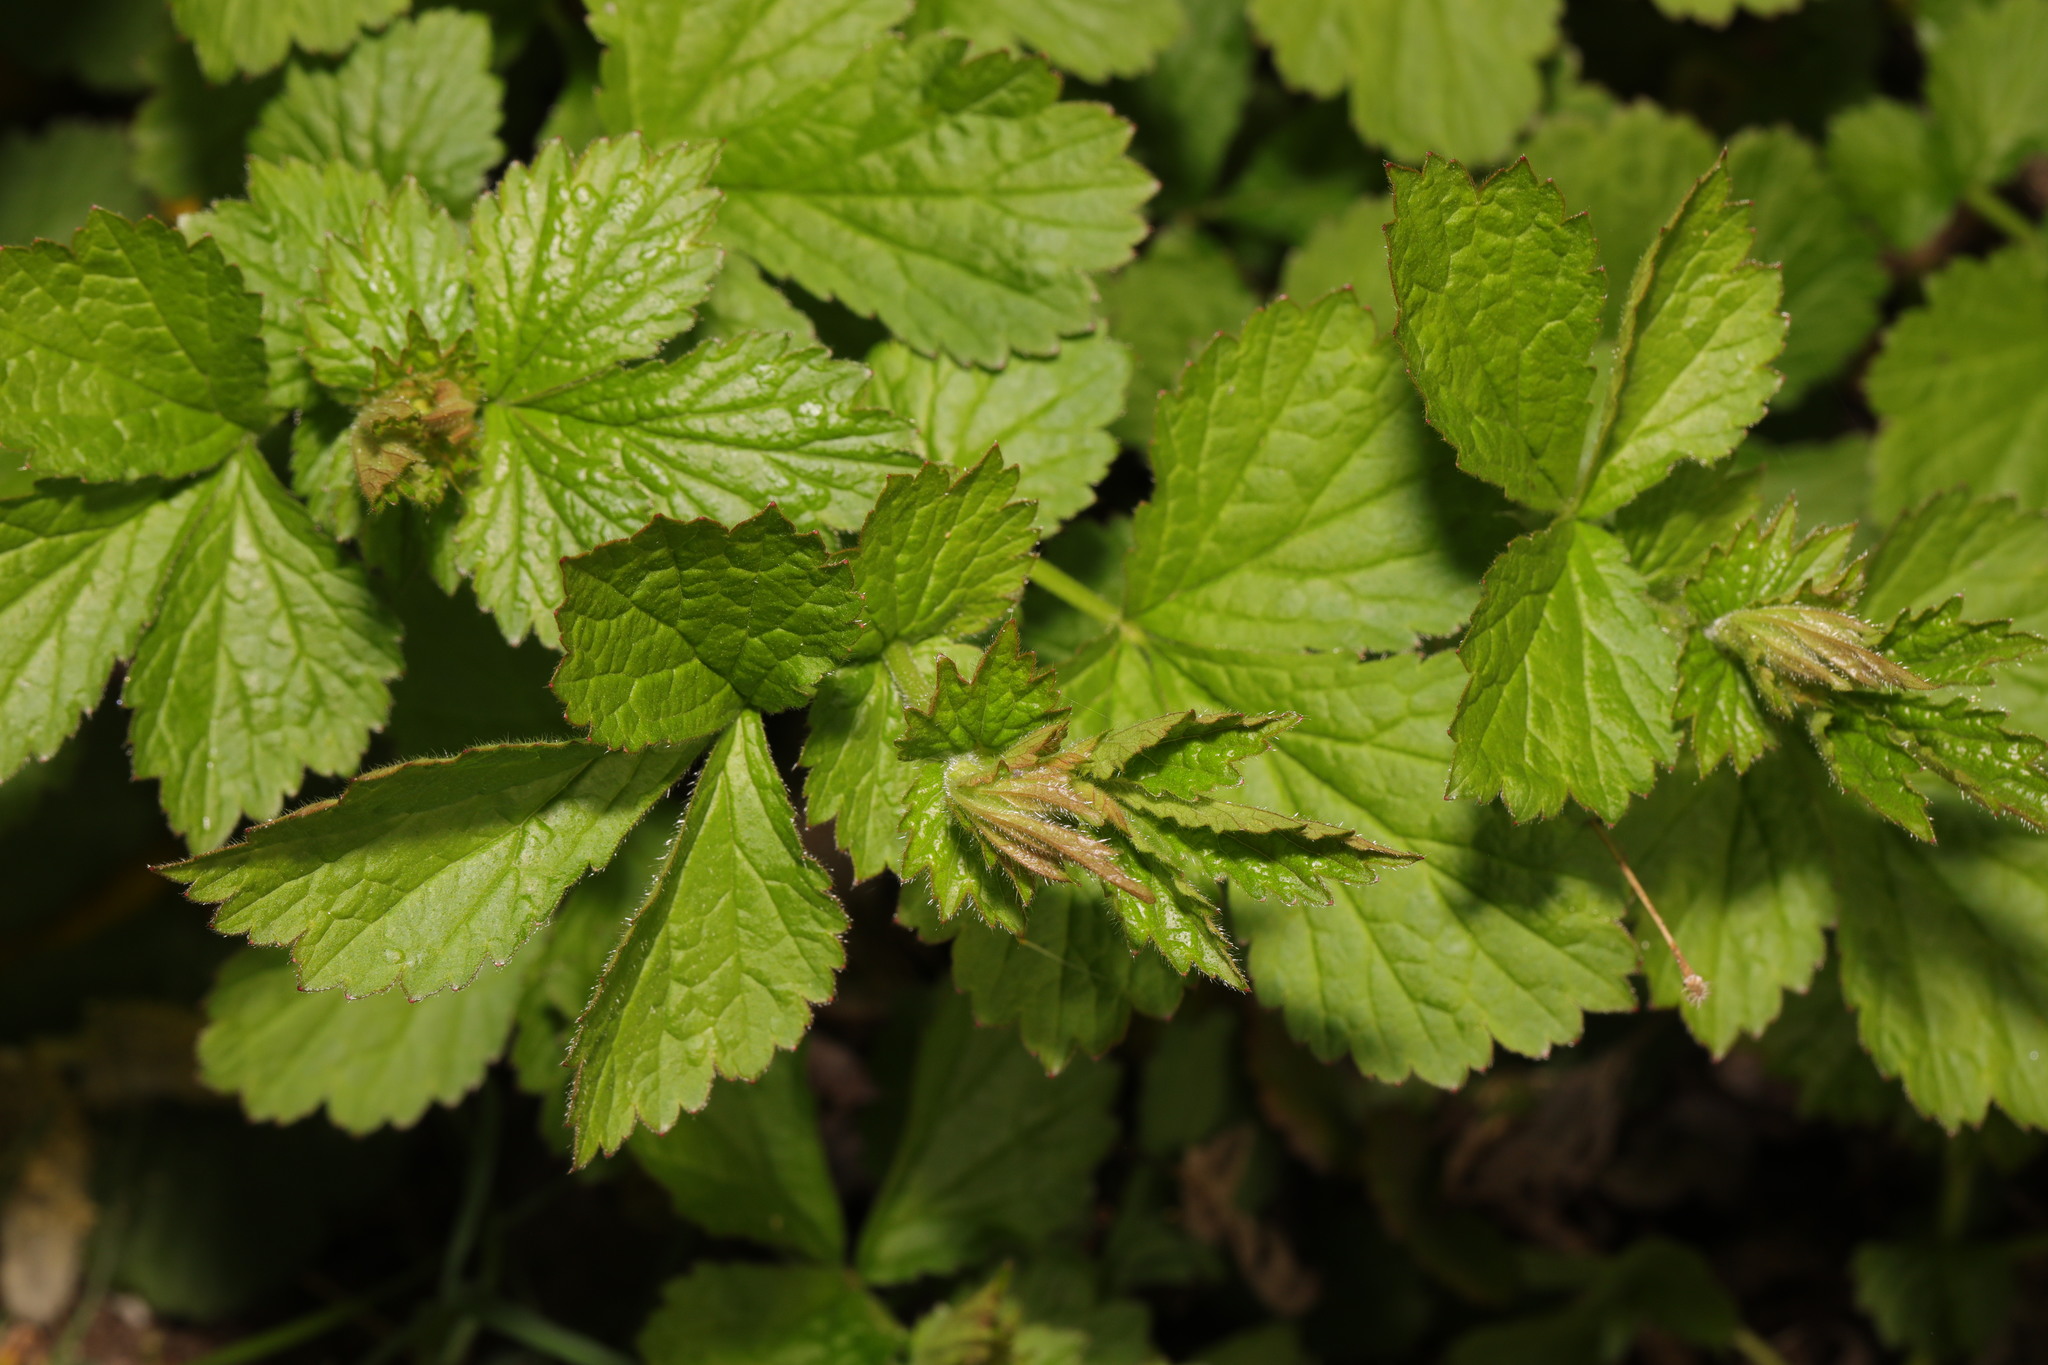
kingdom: Plantae
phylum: Tracheophyta
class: Magnoliopsida
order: Rosales
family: Rosaceae
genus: Geum
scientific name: Geum urbanum
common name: Wood avens
